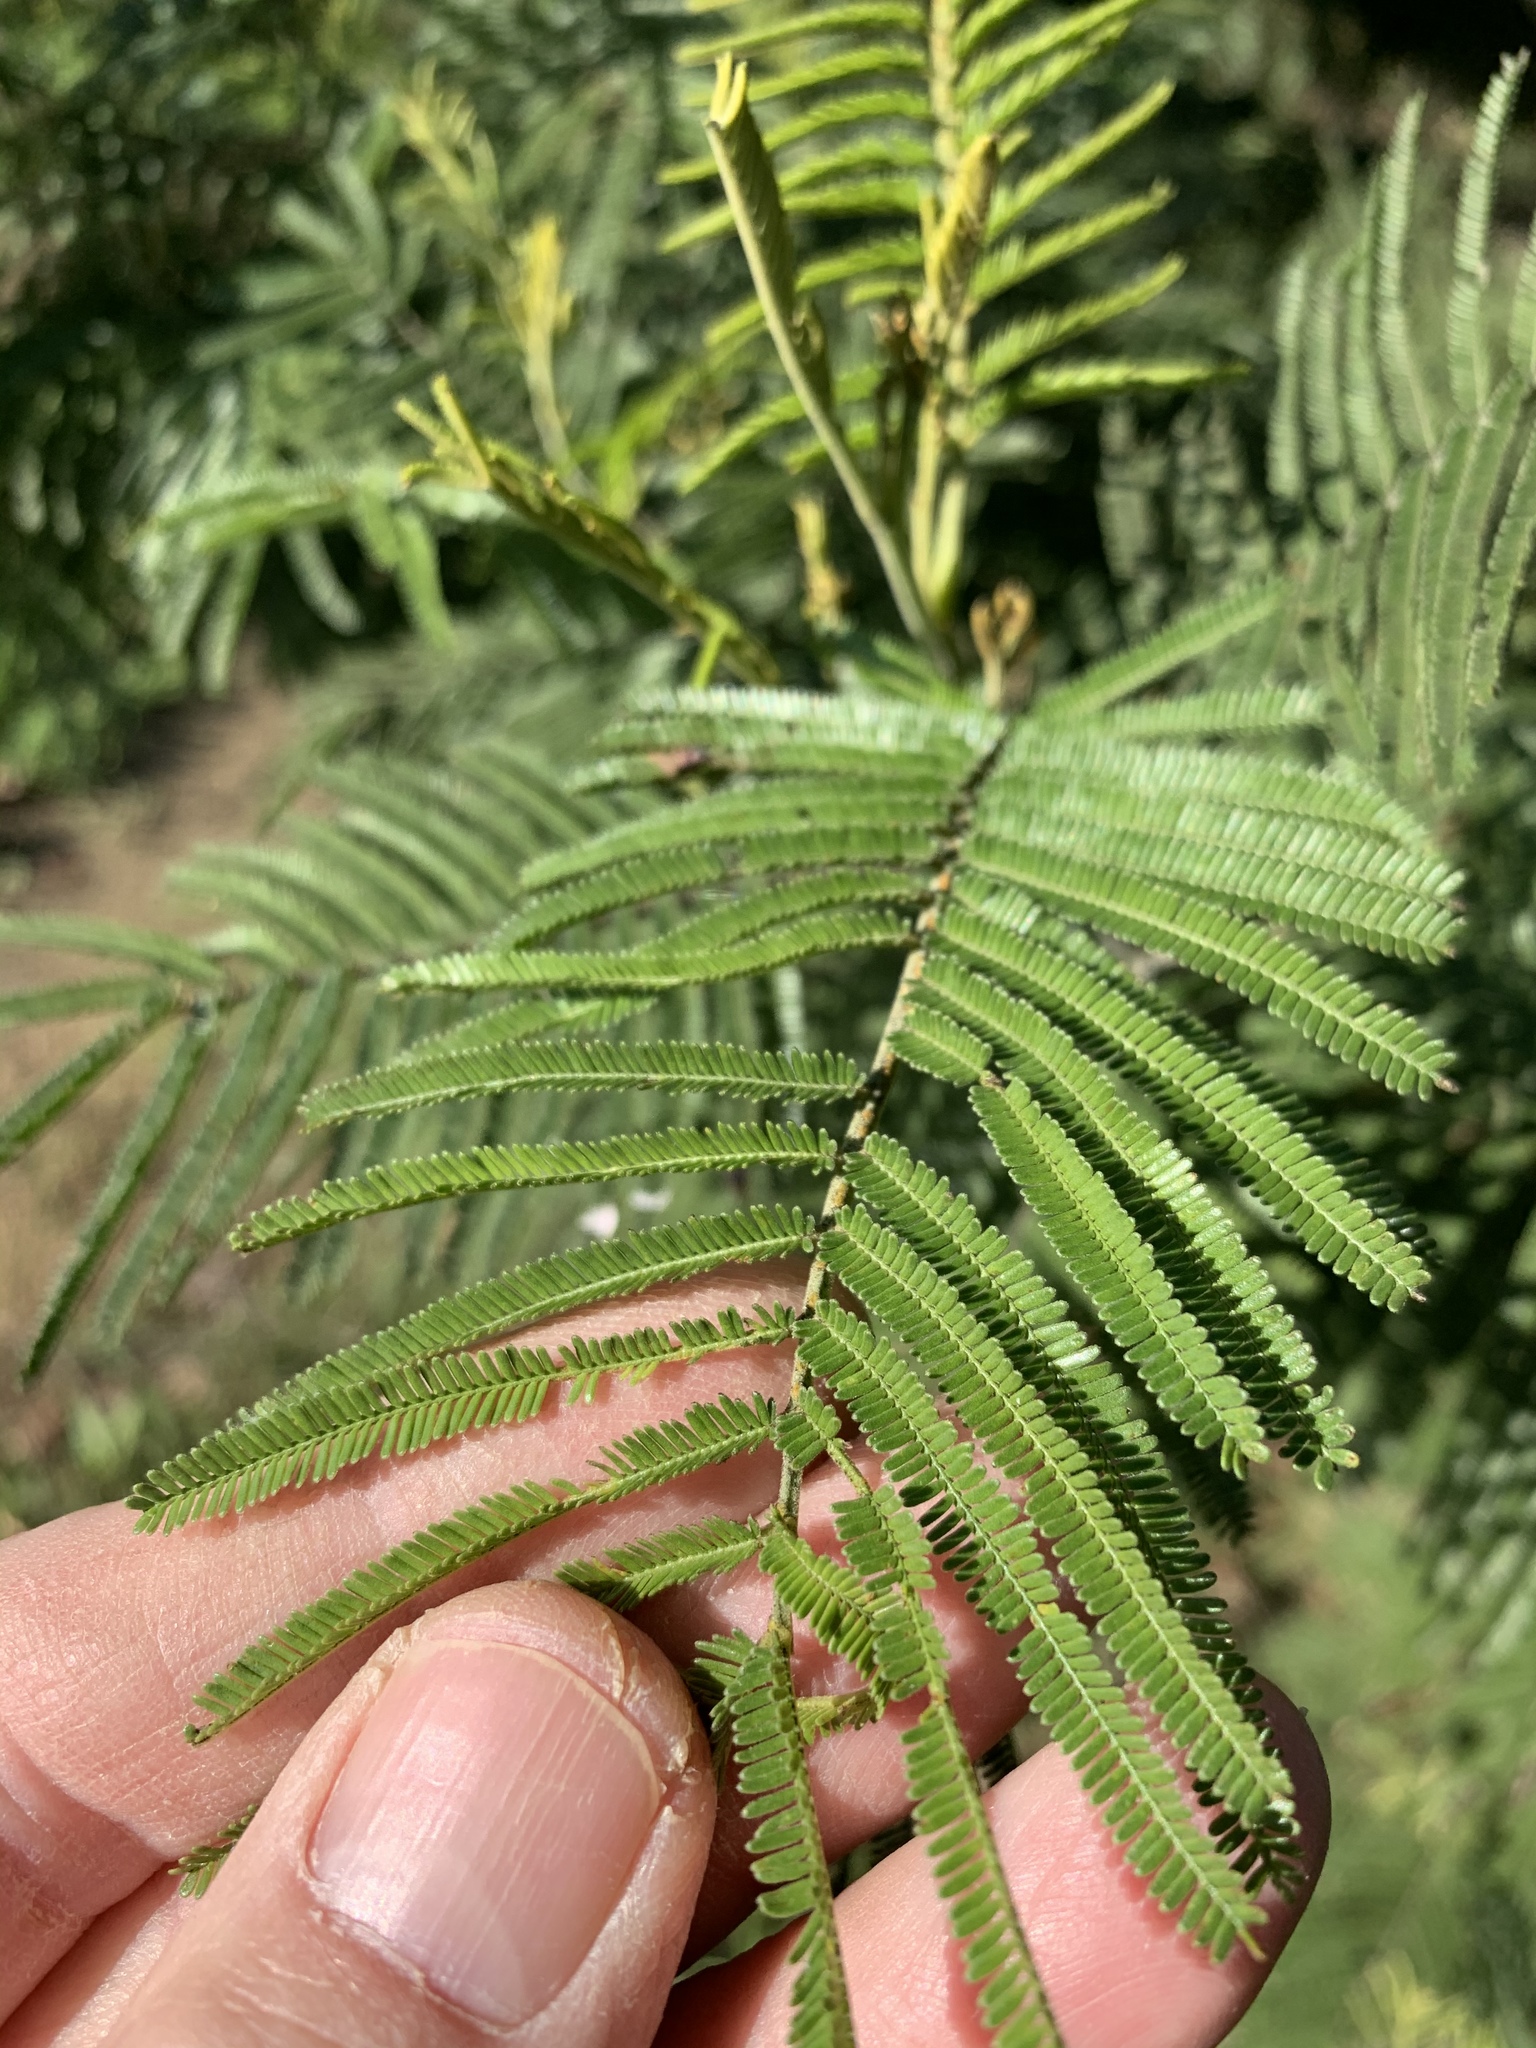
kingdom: Plantae
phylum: Tracheophyta
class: Magnoliopsida
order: Fabales
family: Fabaceae
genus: Acacia
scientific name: Acacia mearnsii
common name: Black wattle
